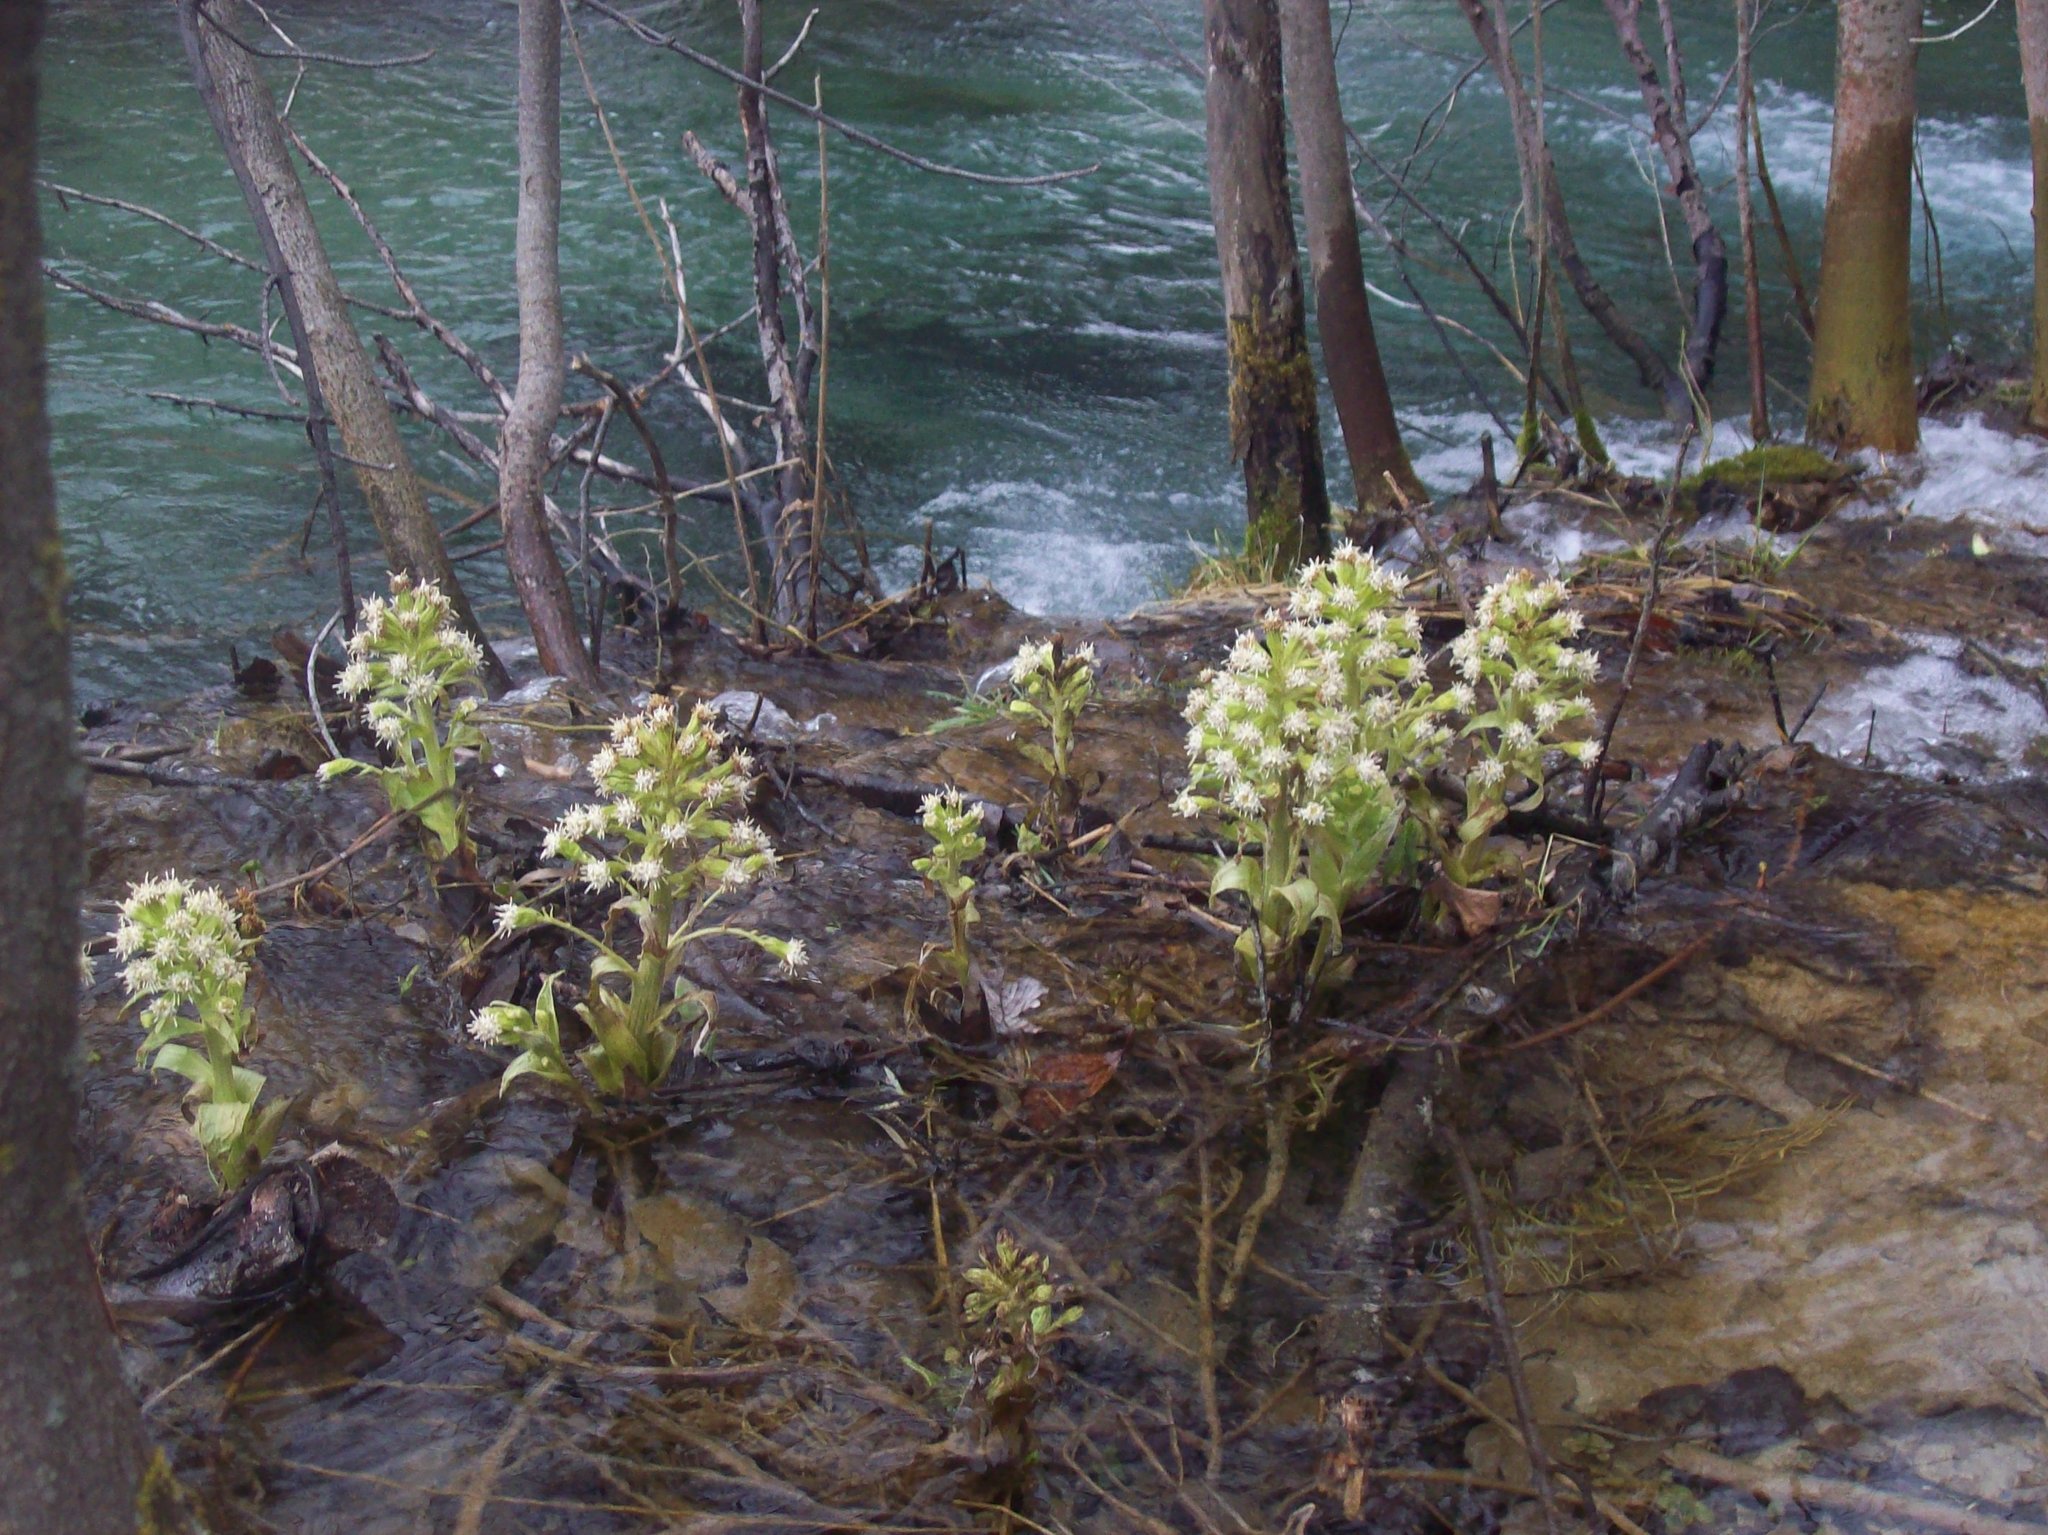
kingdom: Plantae
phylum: Tracheophyta
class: Magnoliopsida
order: Asterales
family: Asteraceae
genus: Petasites
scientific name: Petasites albus
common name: White butterbur
